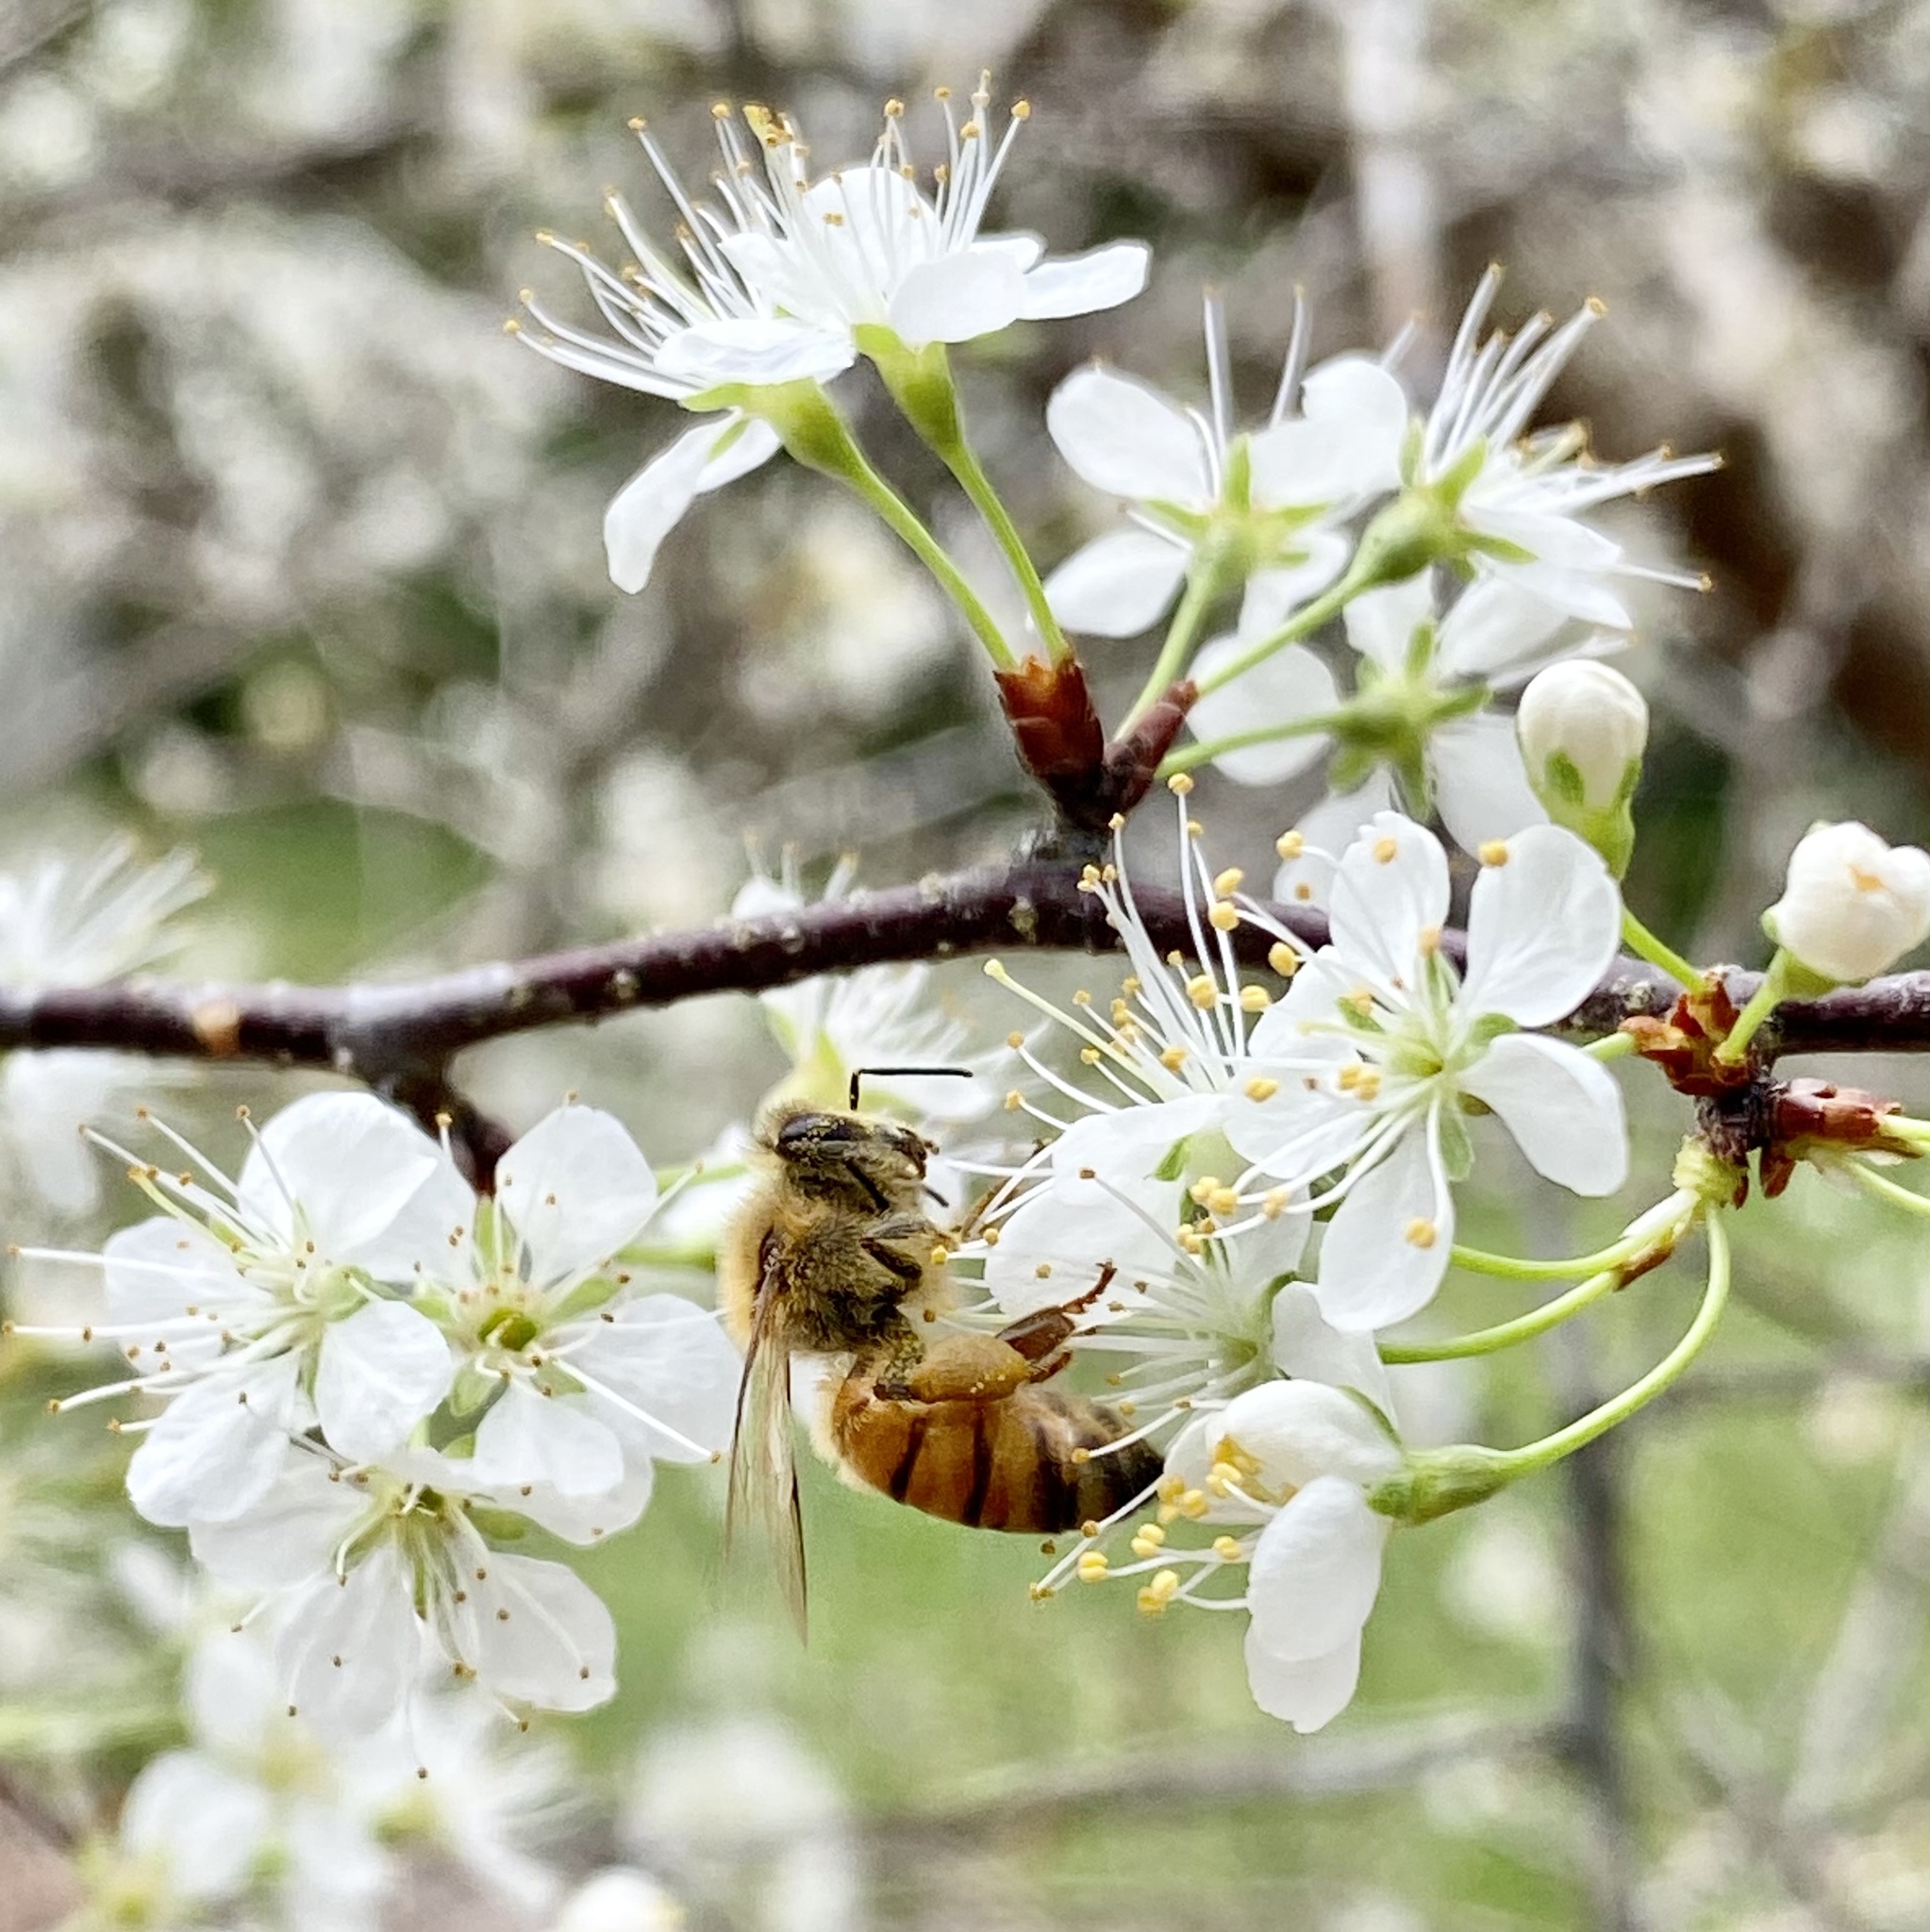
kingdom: Animalia
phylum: Arthropoda
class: Insecta
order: Hymenoptera
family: Apidae
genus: Apis
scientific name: Apis mellifera
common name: Honey bee
